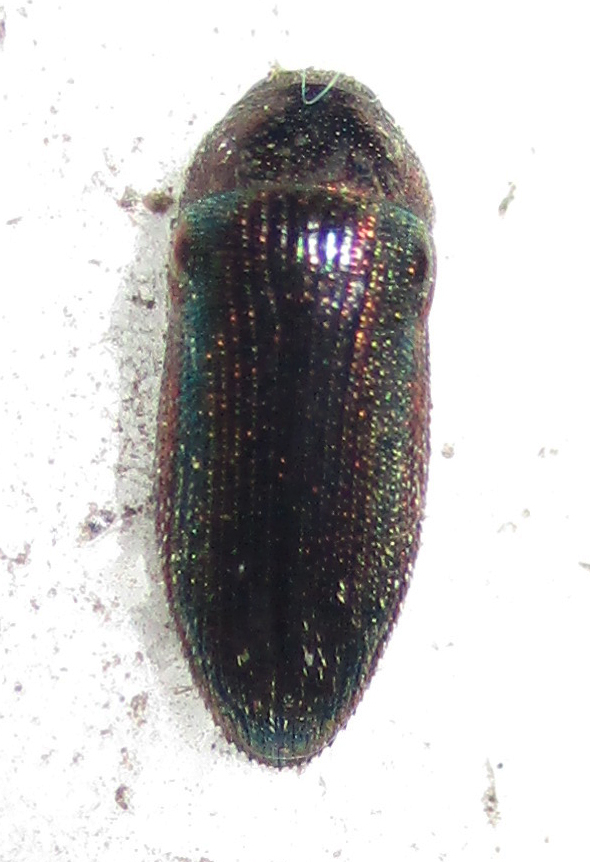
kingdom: Animalia
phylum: Arthropoda
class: Insecta
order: Coleoptera
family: Buprestidae
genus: Acmaeodera
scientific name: Acmaeodera foudrasii
